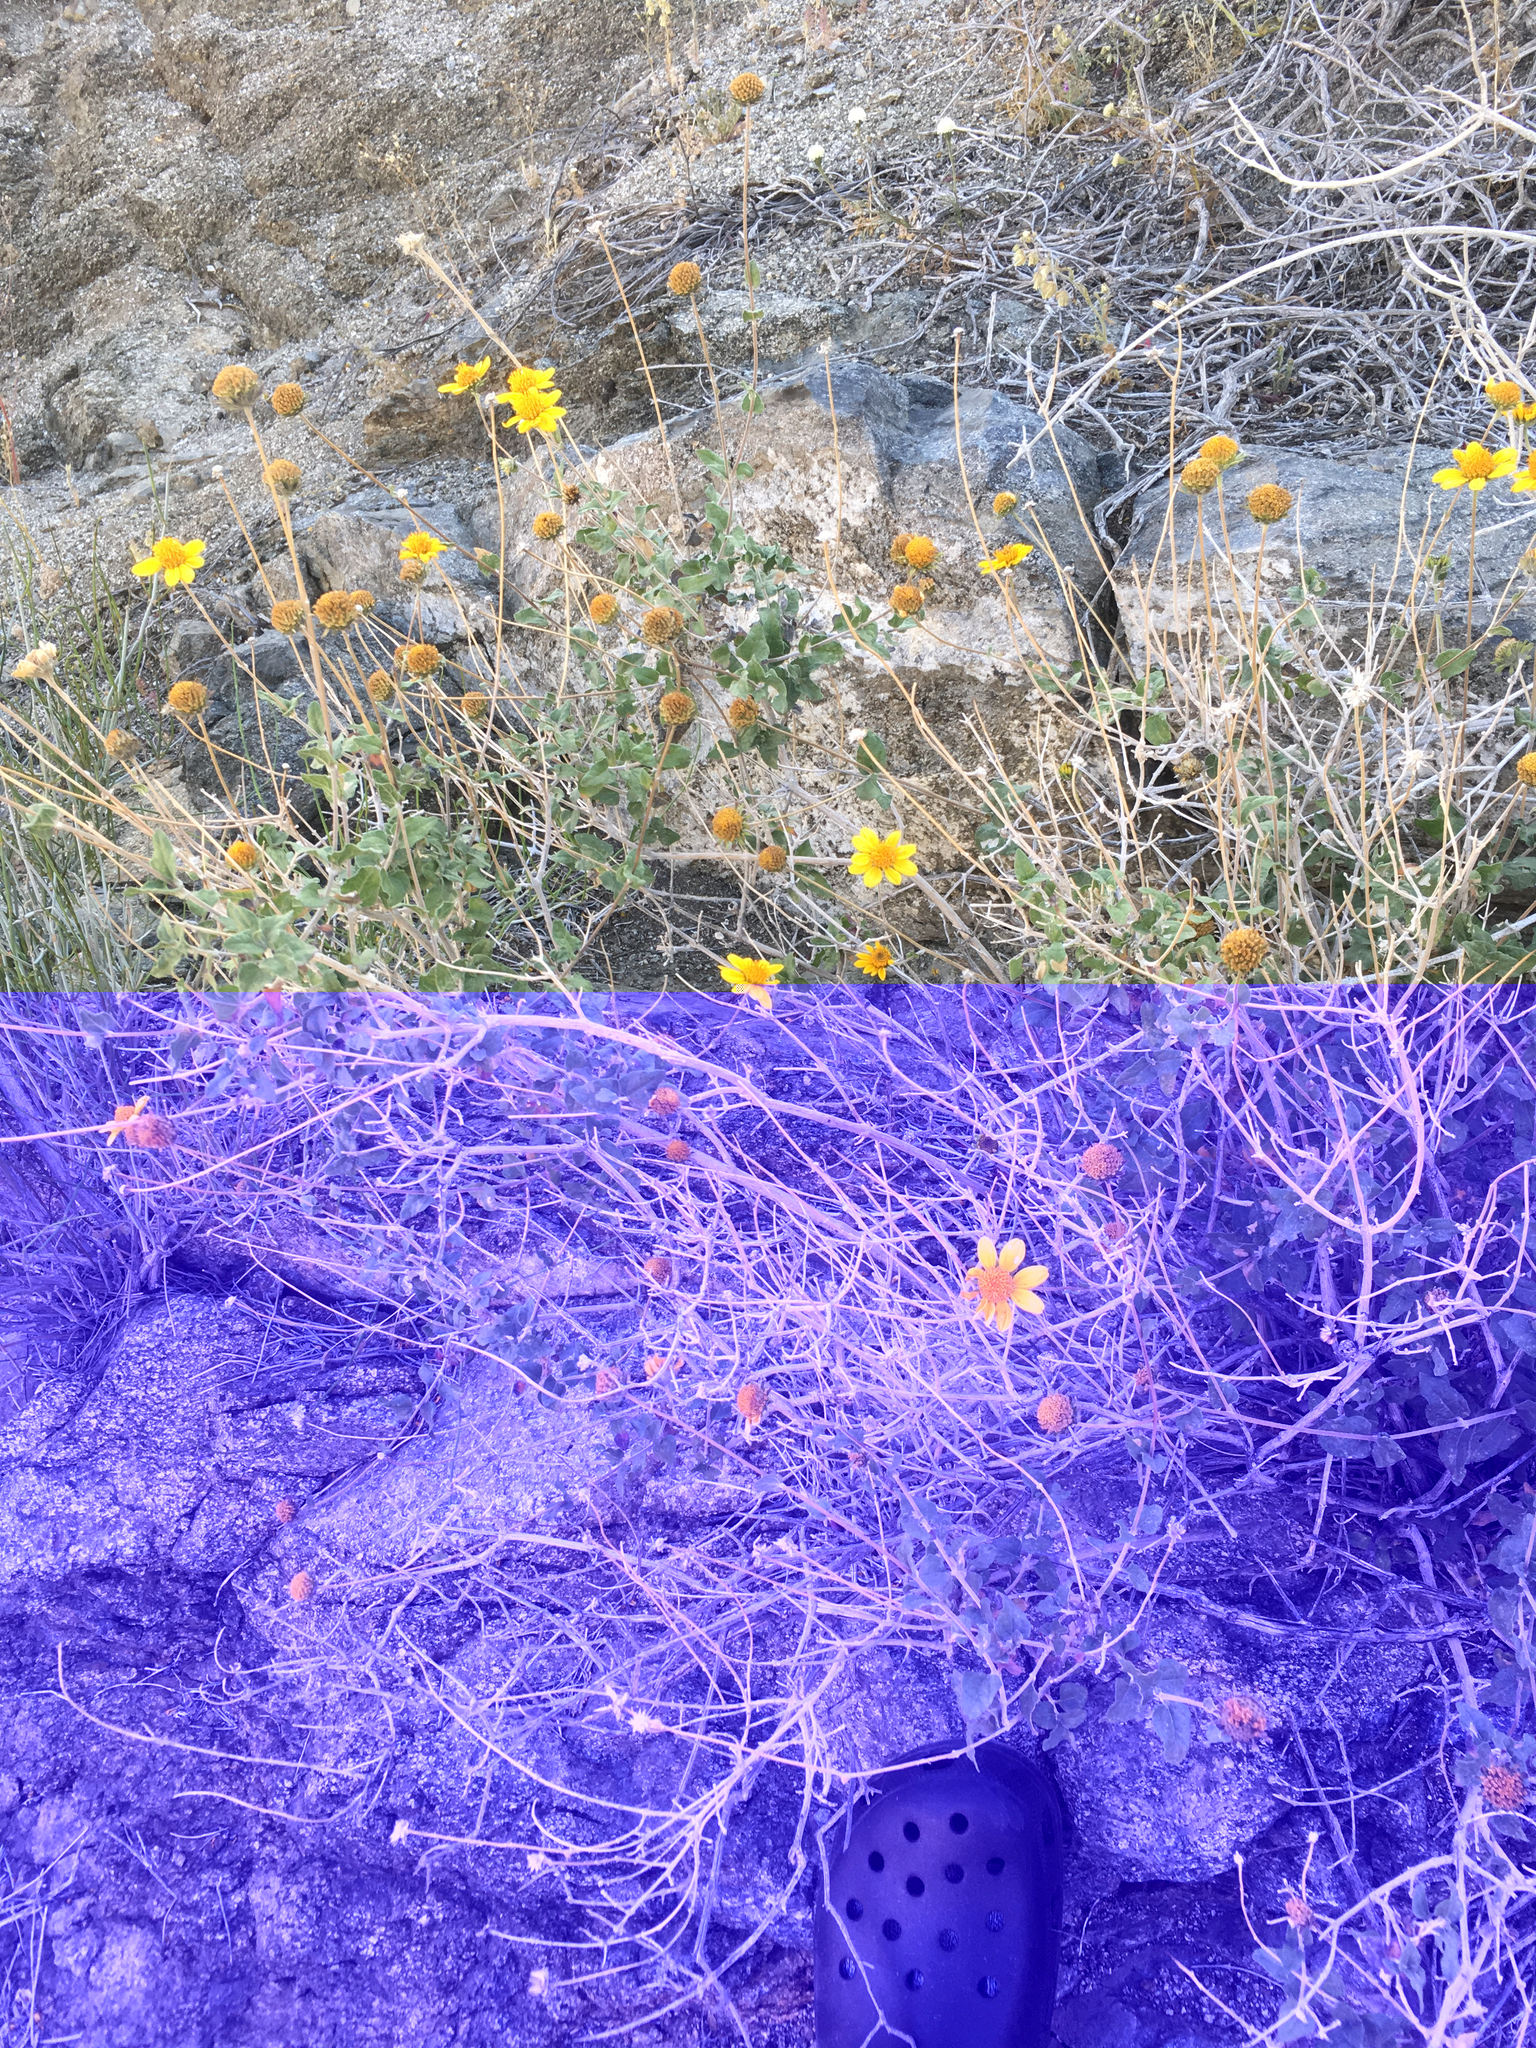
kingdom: Plantae
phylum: Tracheophyta
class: Magnoliopsida
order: Asterales
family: Asteraceae
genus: Bahiopsis
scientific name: Bahiopsis parishii
